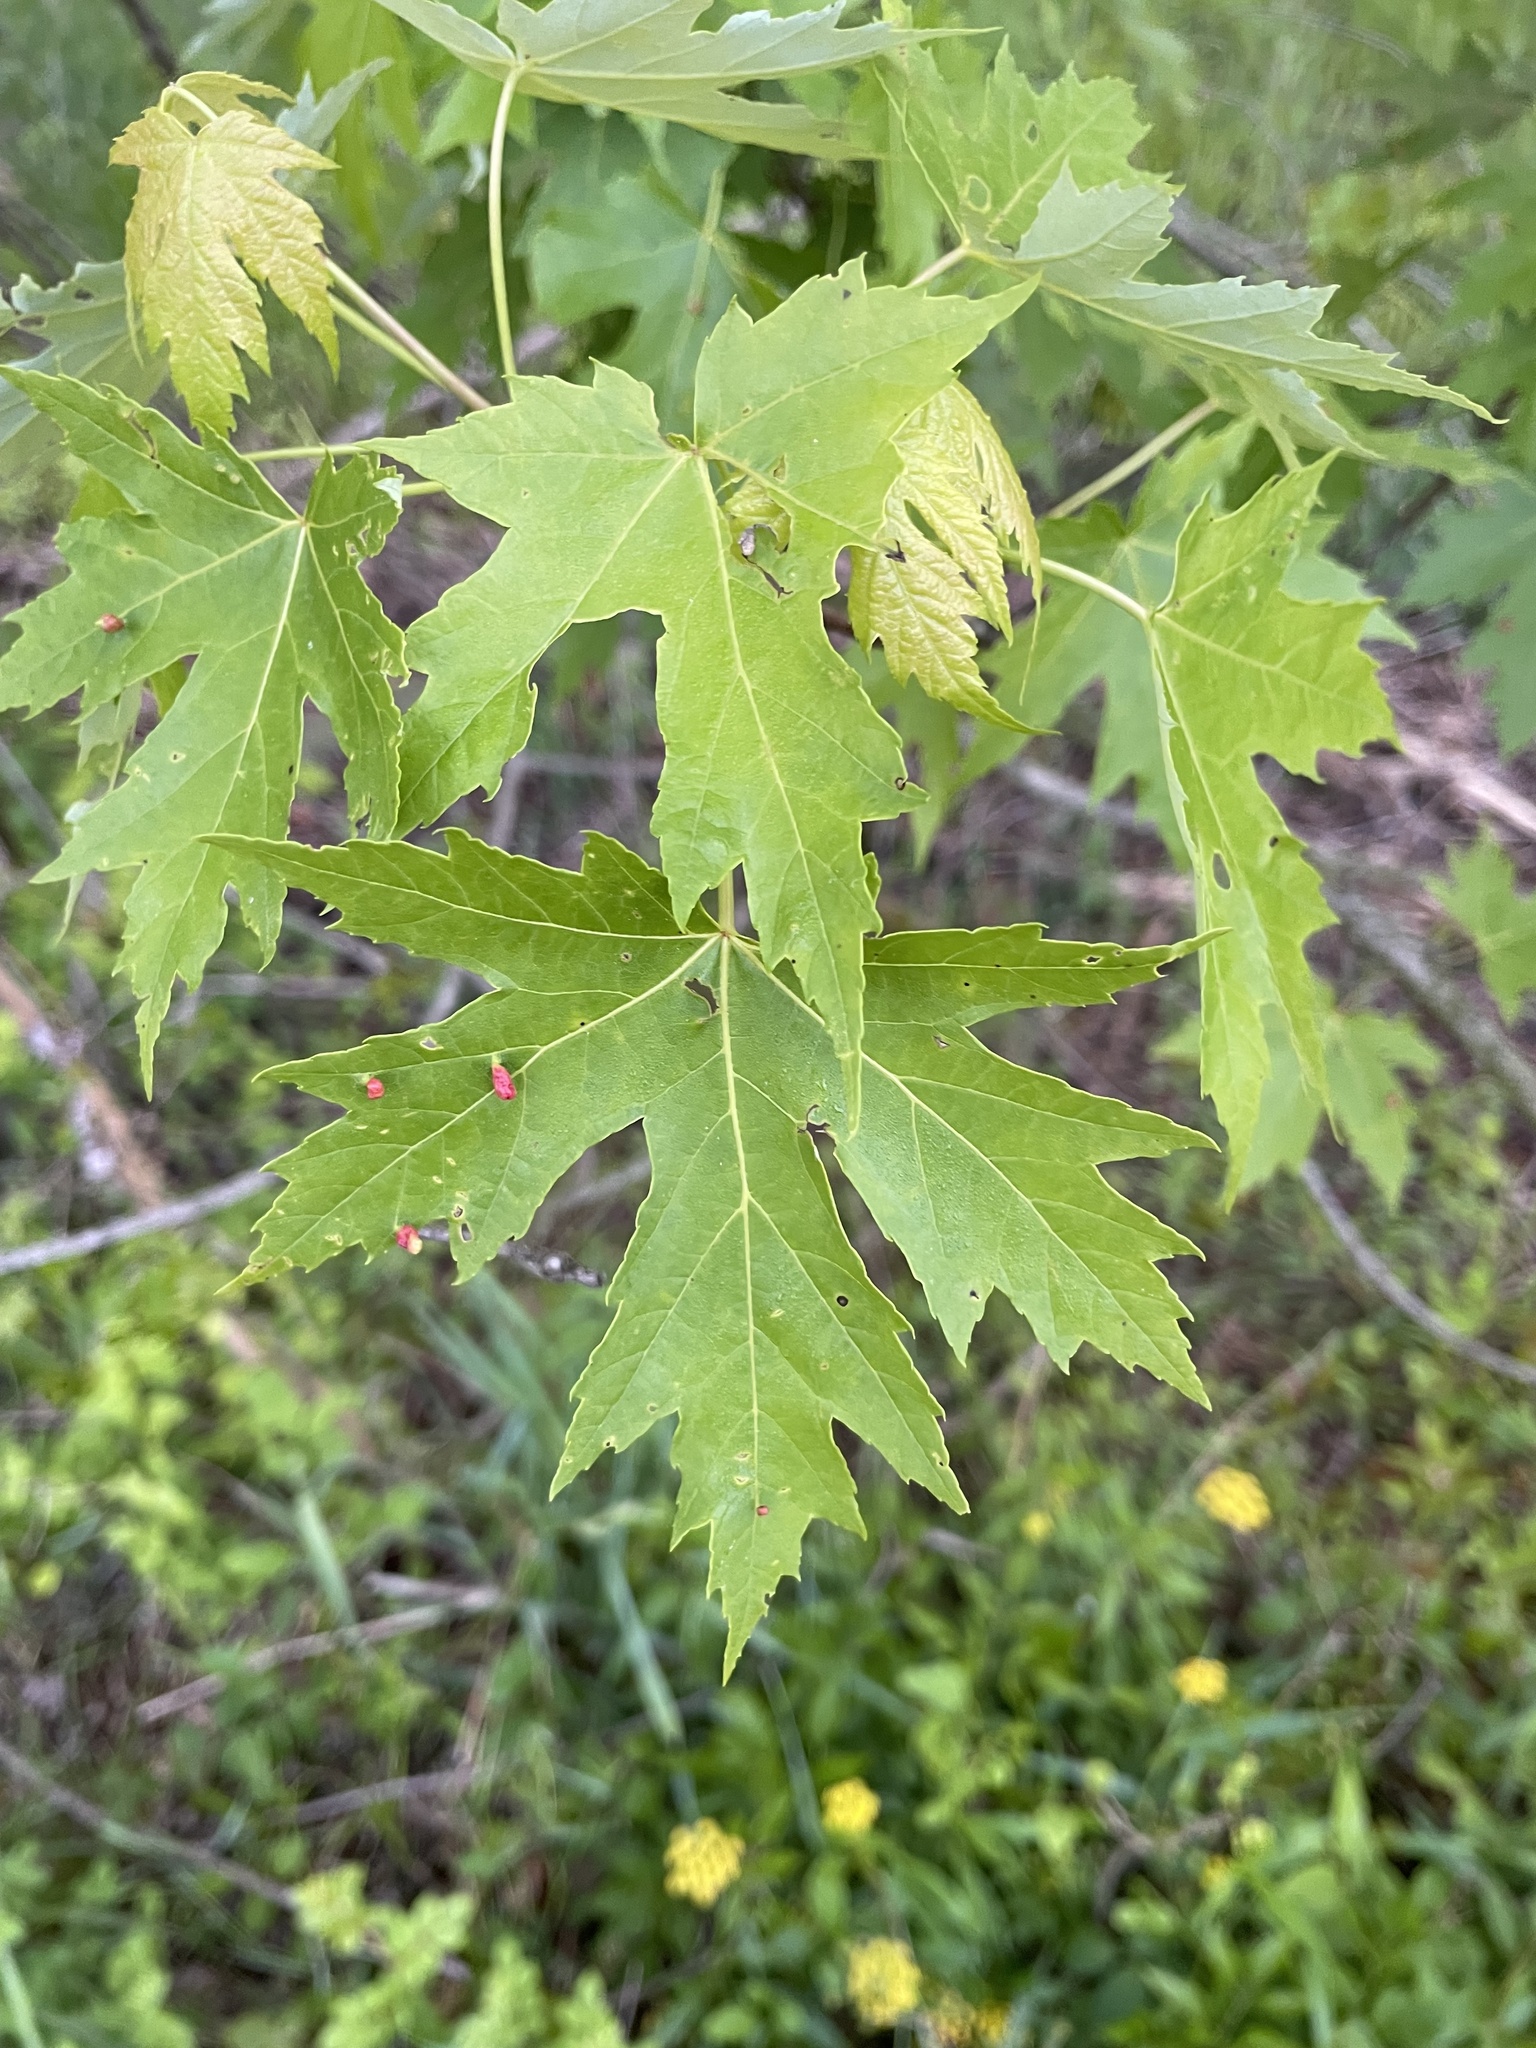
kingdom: Plantae
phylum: Tracheophyta
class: Magnoliopsida
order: Sapindales
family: Sapindaceae
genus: Acer
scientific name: Acer saccharinum
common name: Silver maple
